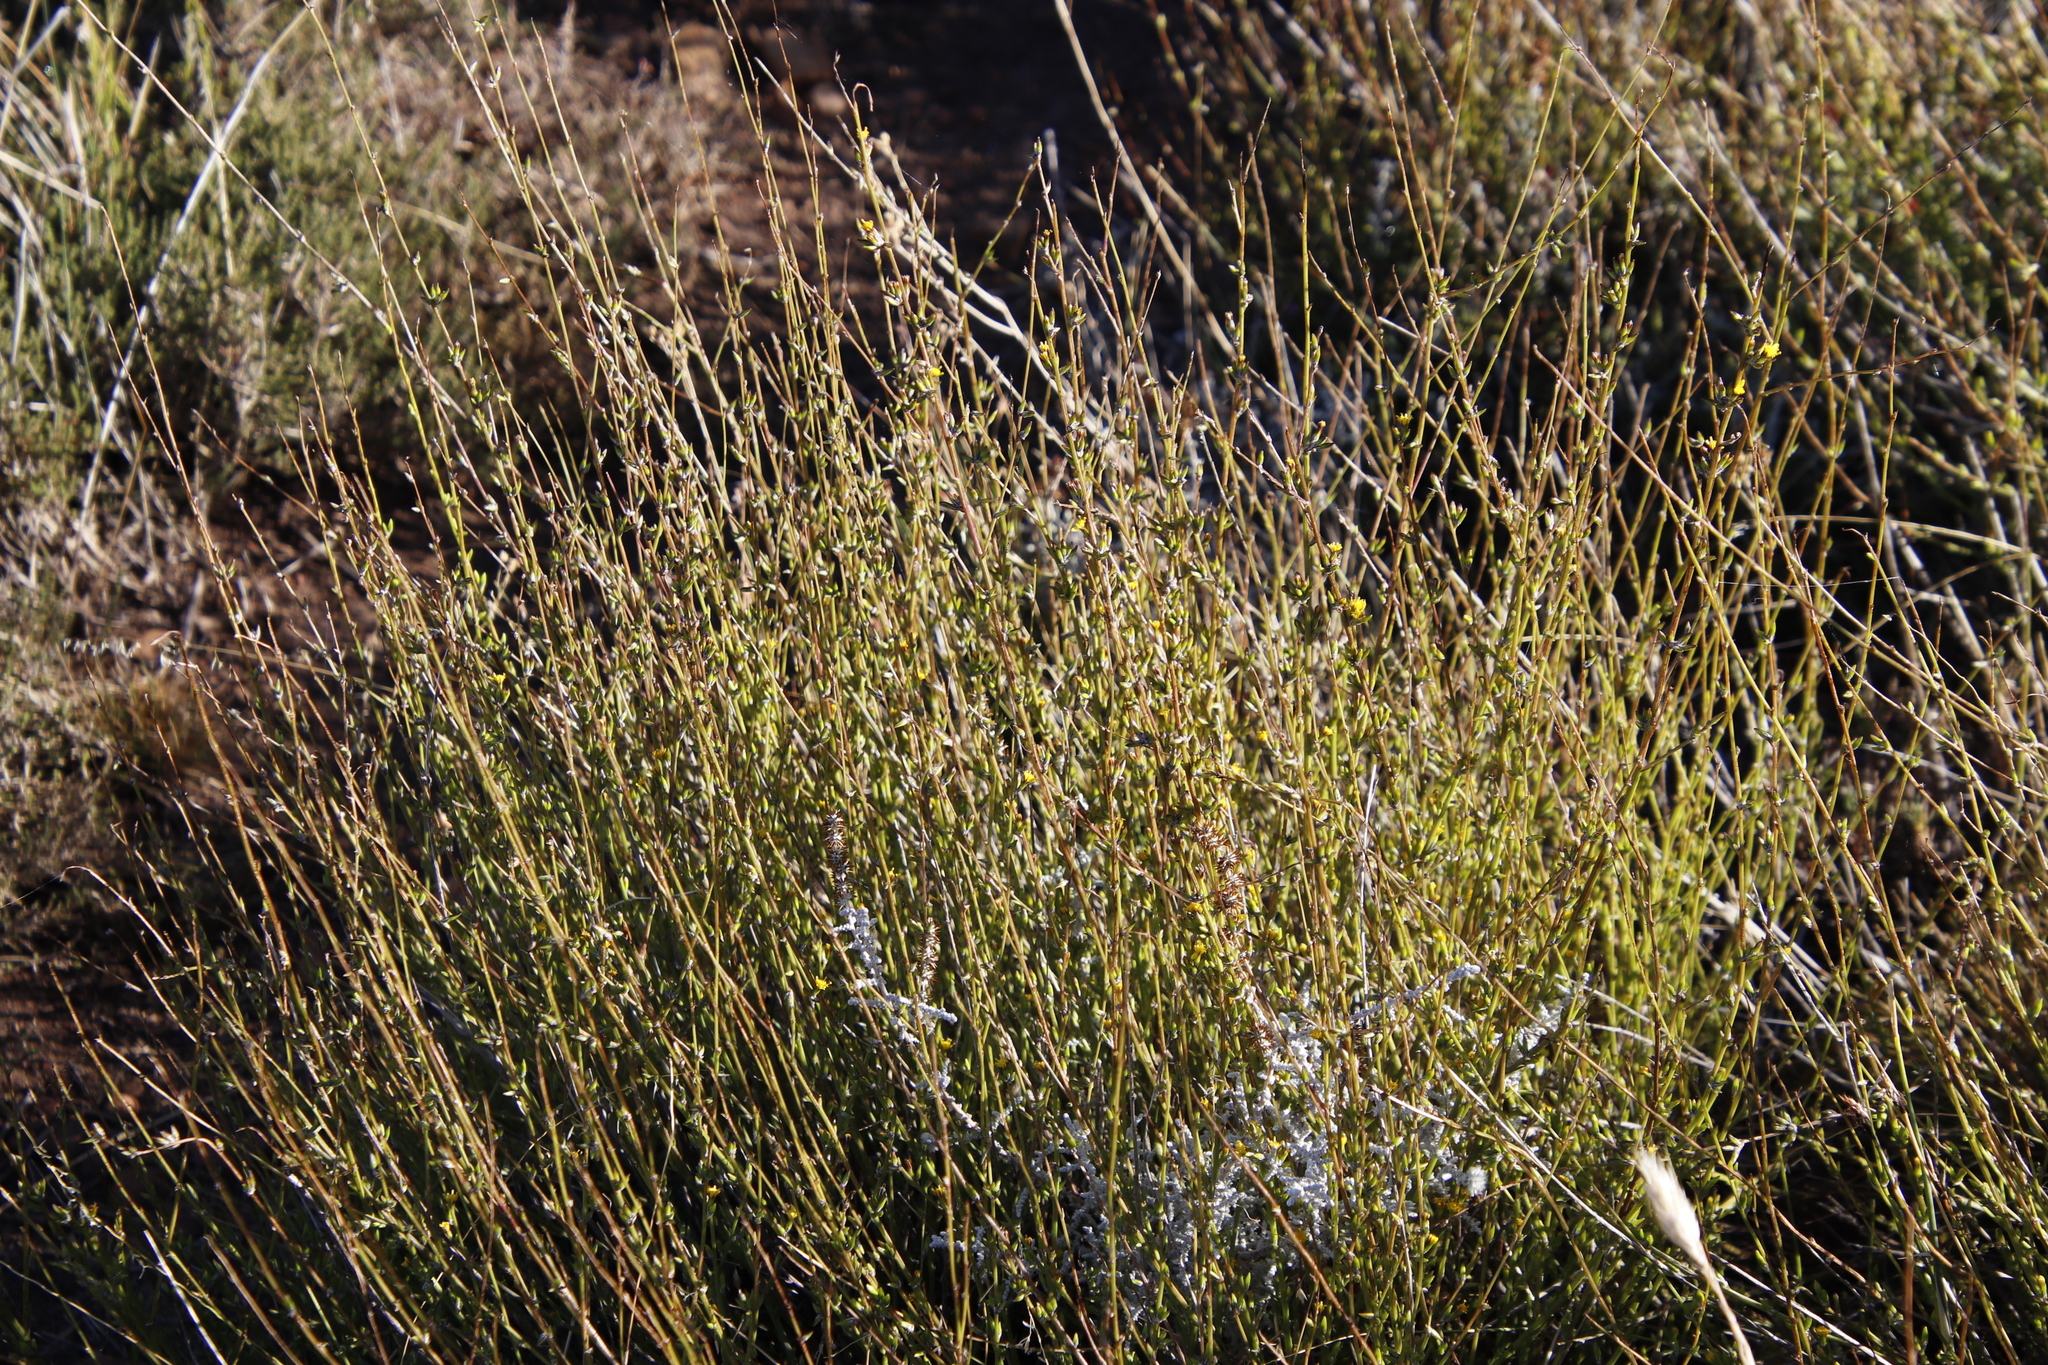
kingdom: Plantae
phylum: Tracheophyta
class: Magnoliopsida
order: Asterales
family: Asteraceae
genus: Senecio
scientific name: Senecio pubigerus
